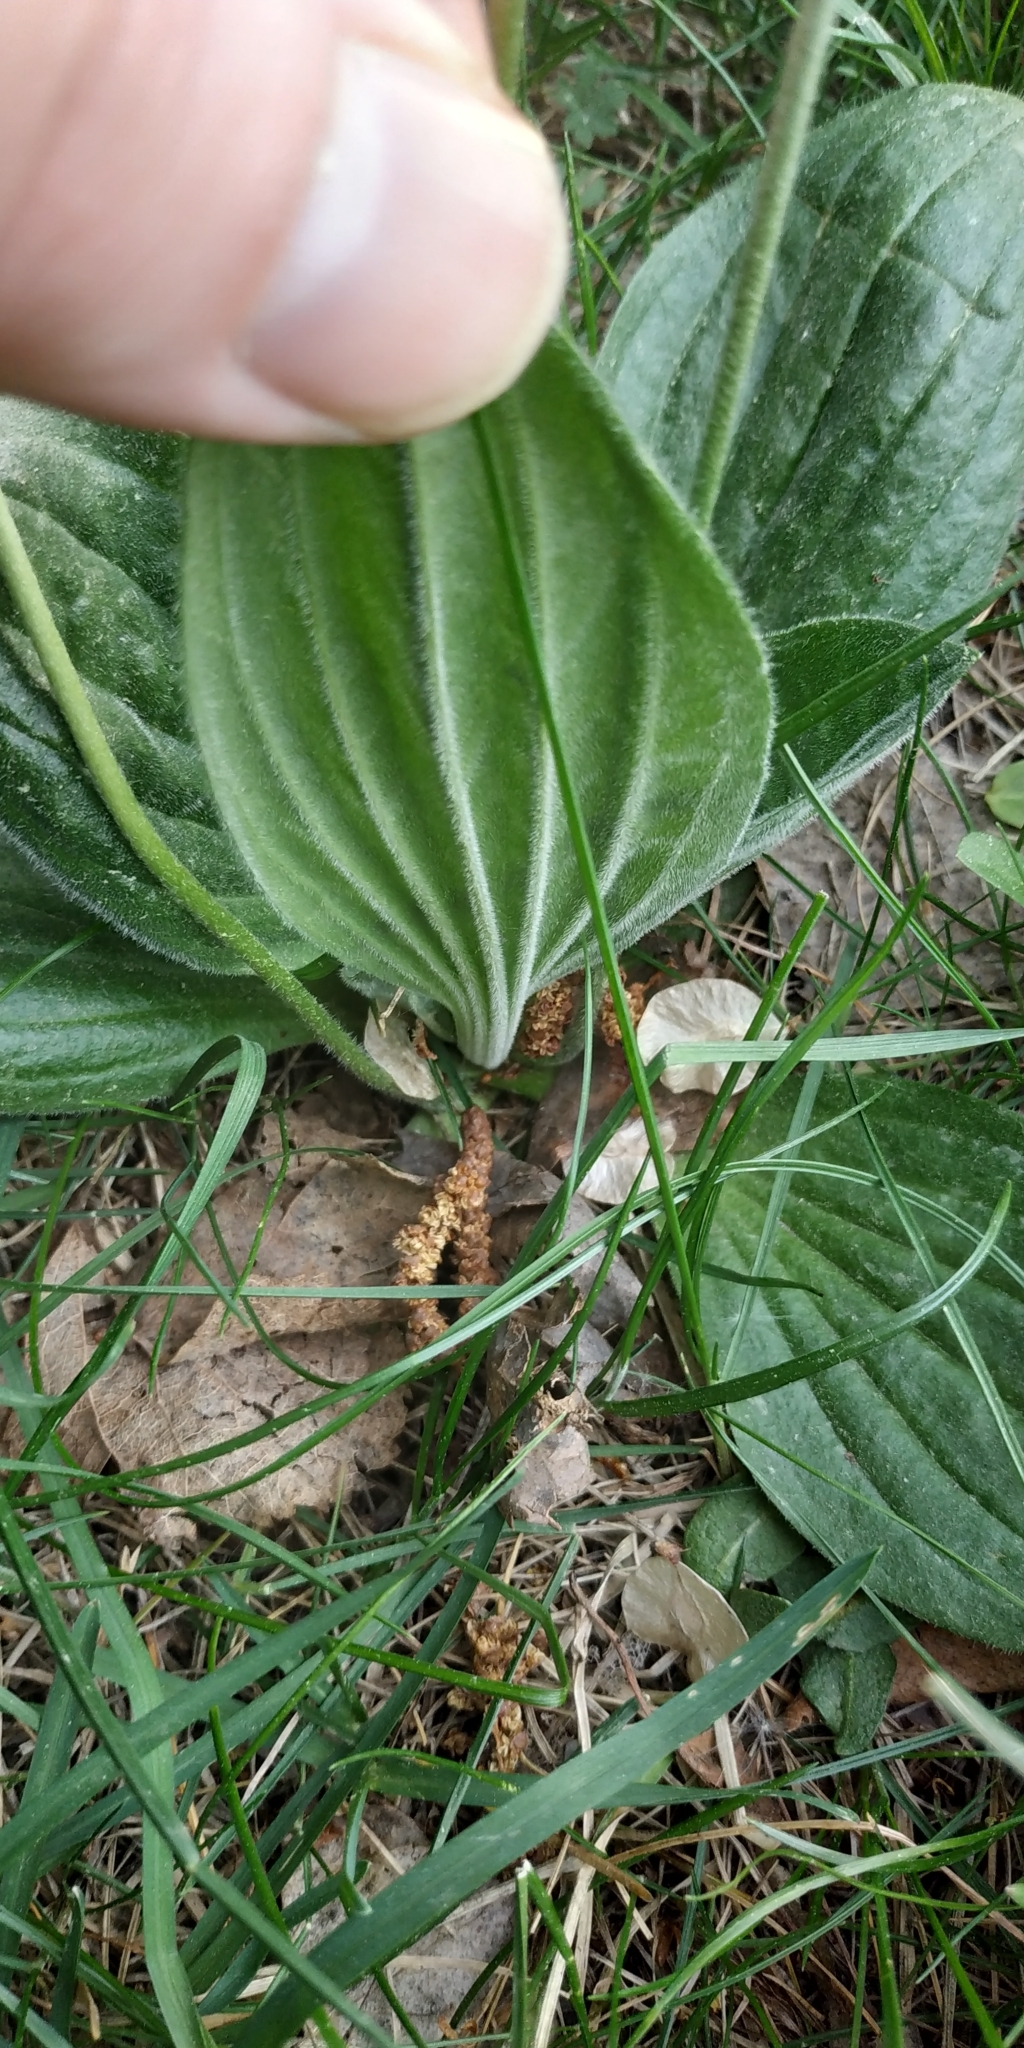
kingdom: Plantae
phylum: Tracheophyta
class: Magnoliopsida
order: Lamiales
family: Plantaginaceae
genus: Plantago
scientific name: Plantago media
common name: Hoary plantain
